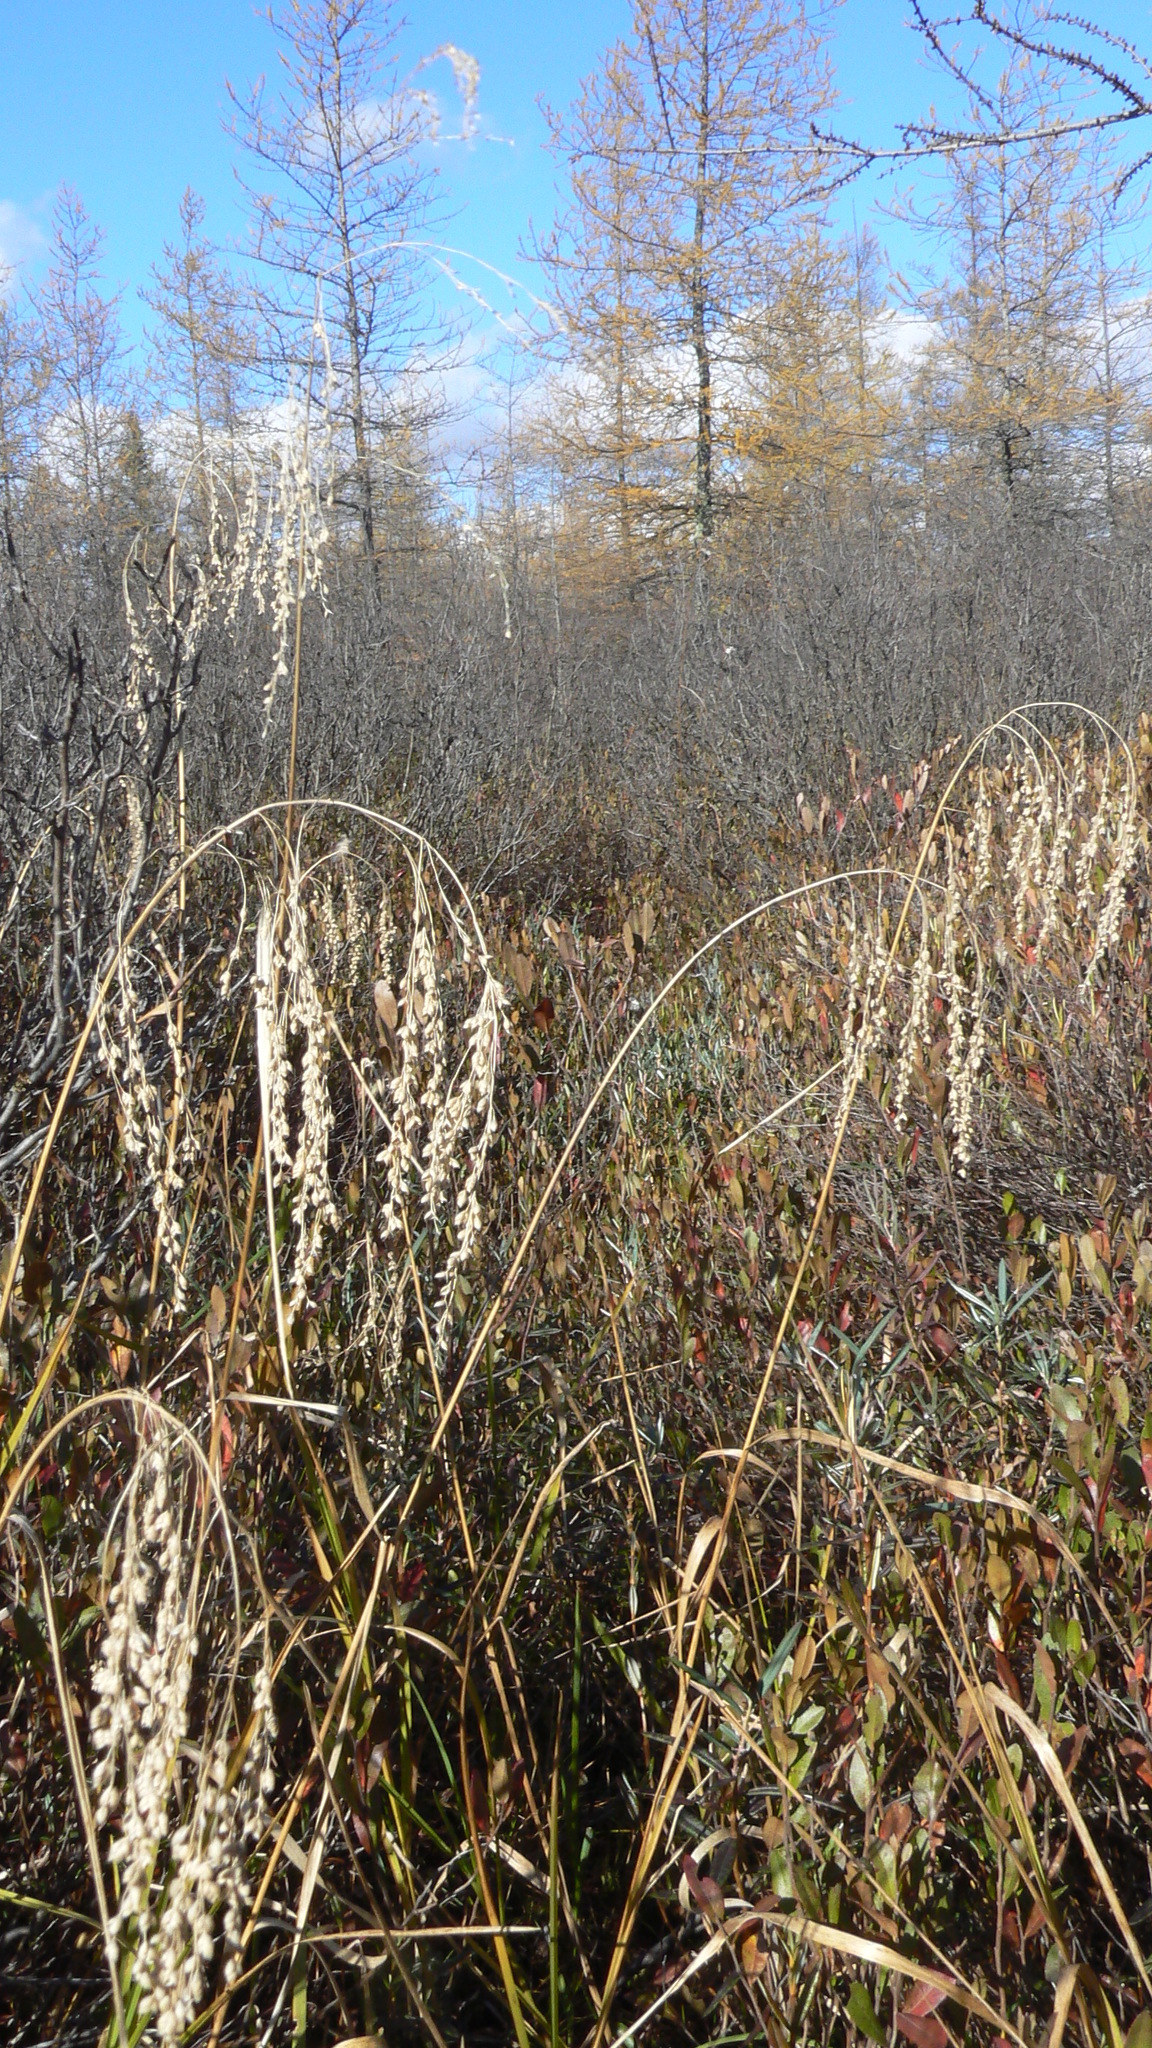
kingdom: Plantae
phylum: Tracheophyta
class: Liliopsida
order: Poales
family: Poaceae
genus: Glyceria
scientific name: Glyceria canadensis
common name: Canada mannagrass
